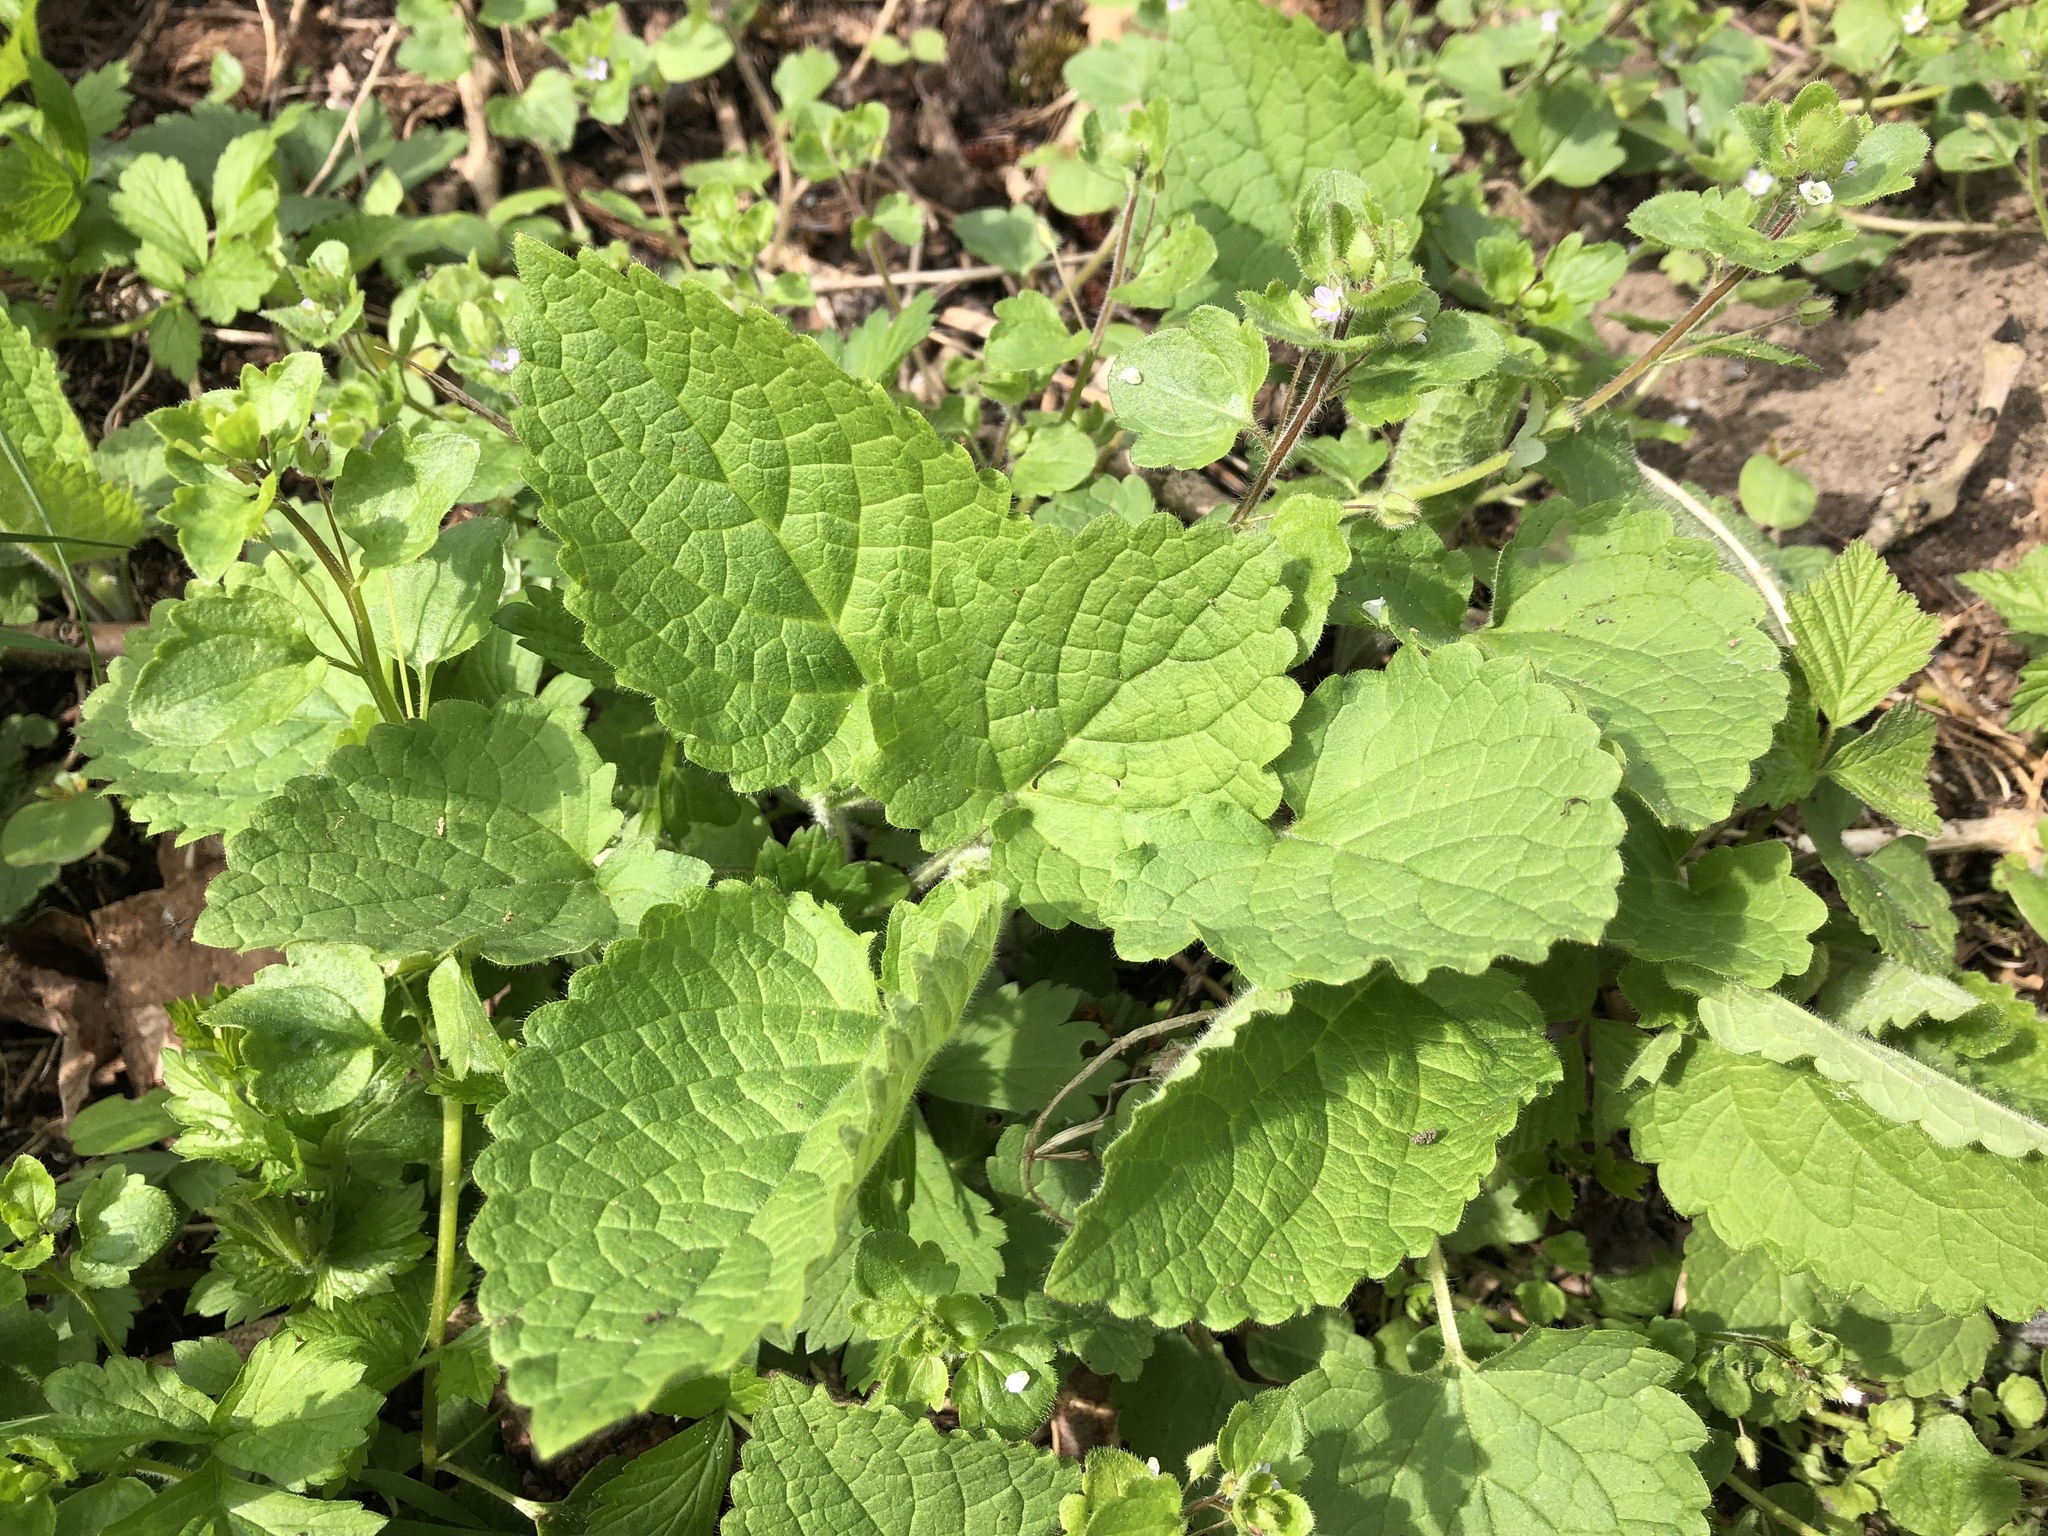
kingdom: Plantae
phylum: Tracheophyta
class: Magnoliopsida
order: Lamiales
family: Lamiaceae
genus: Stachys
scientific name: Stachys sylvatica
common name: Hedge woundwort
